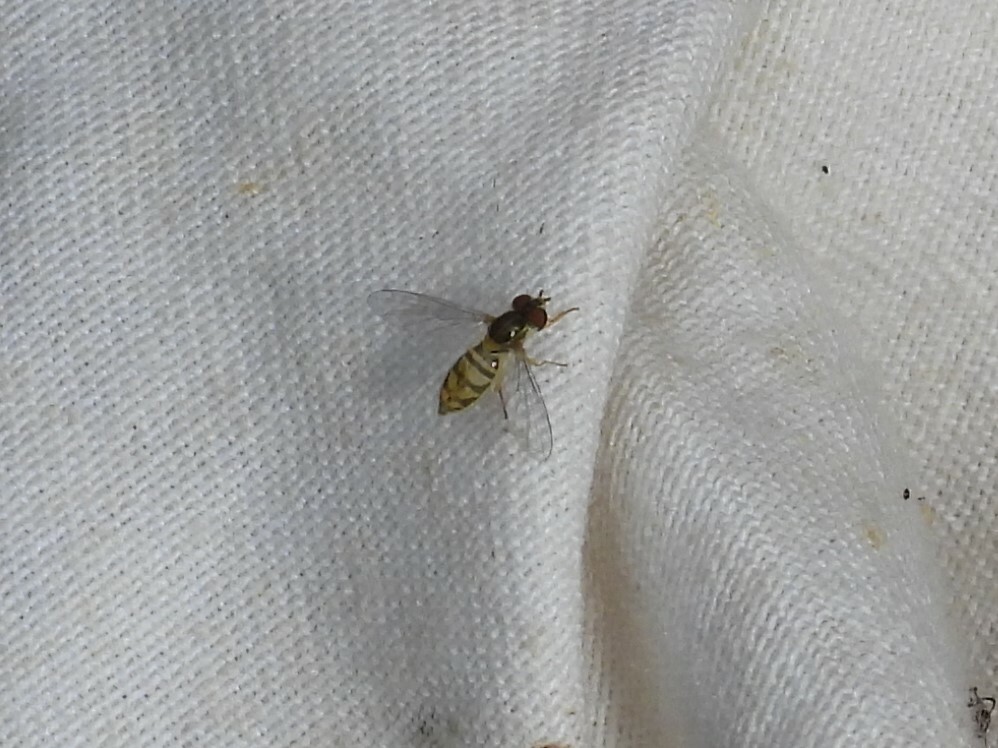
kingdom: Animalia
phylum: Arthropoda
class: Insecta
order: Diptera
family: Syrphidae
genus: Toxomerus
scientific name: Toxomerus marginatus
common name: Syrphid fly
